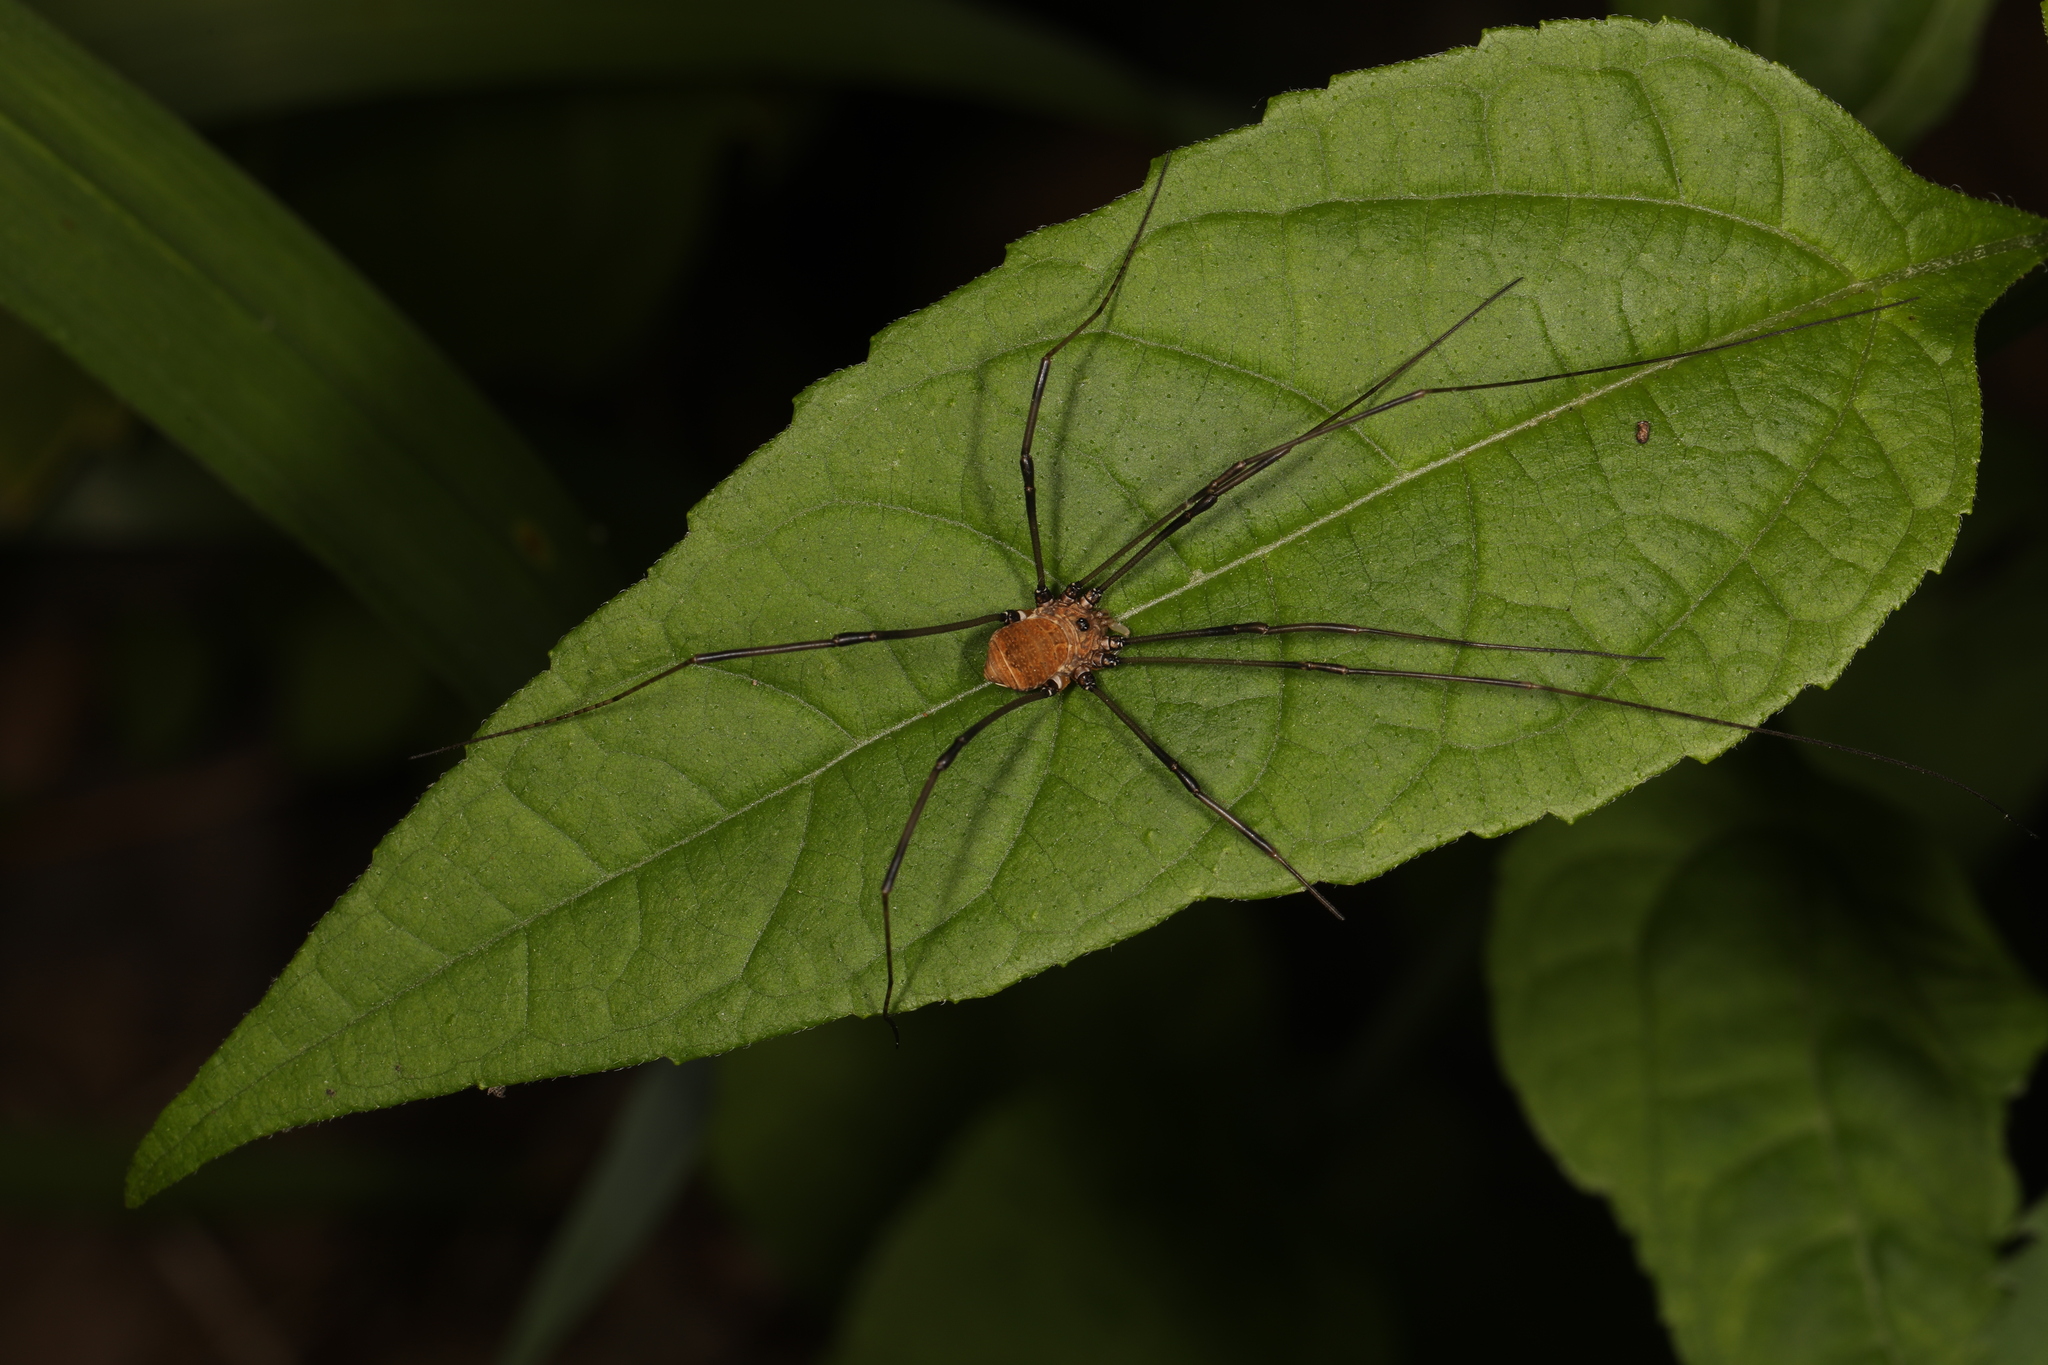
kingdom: Animalia
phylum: Arthropoda
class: Arachnida
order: Opiliones
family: Sclerosomatidae
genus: Leiobunum
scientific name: Leiobunum verrucosum
